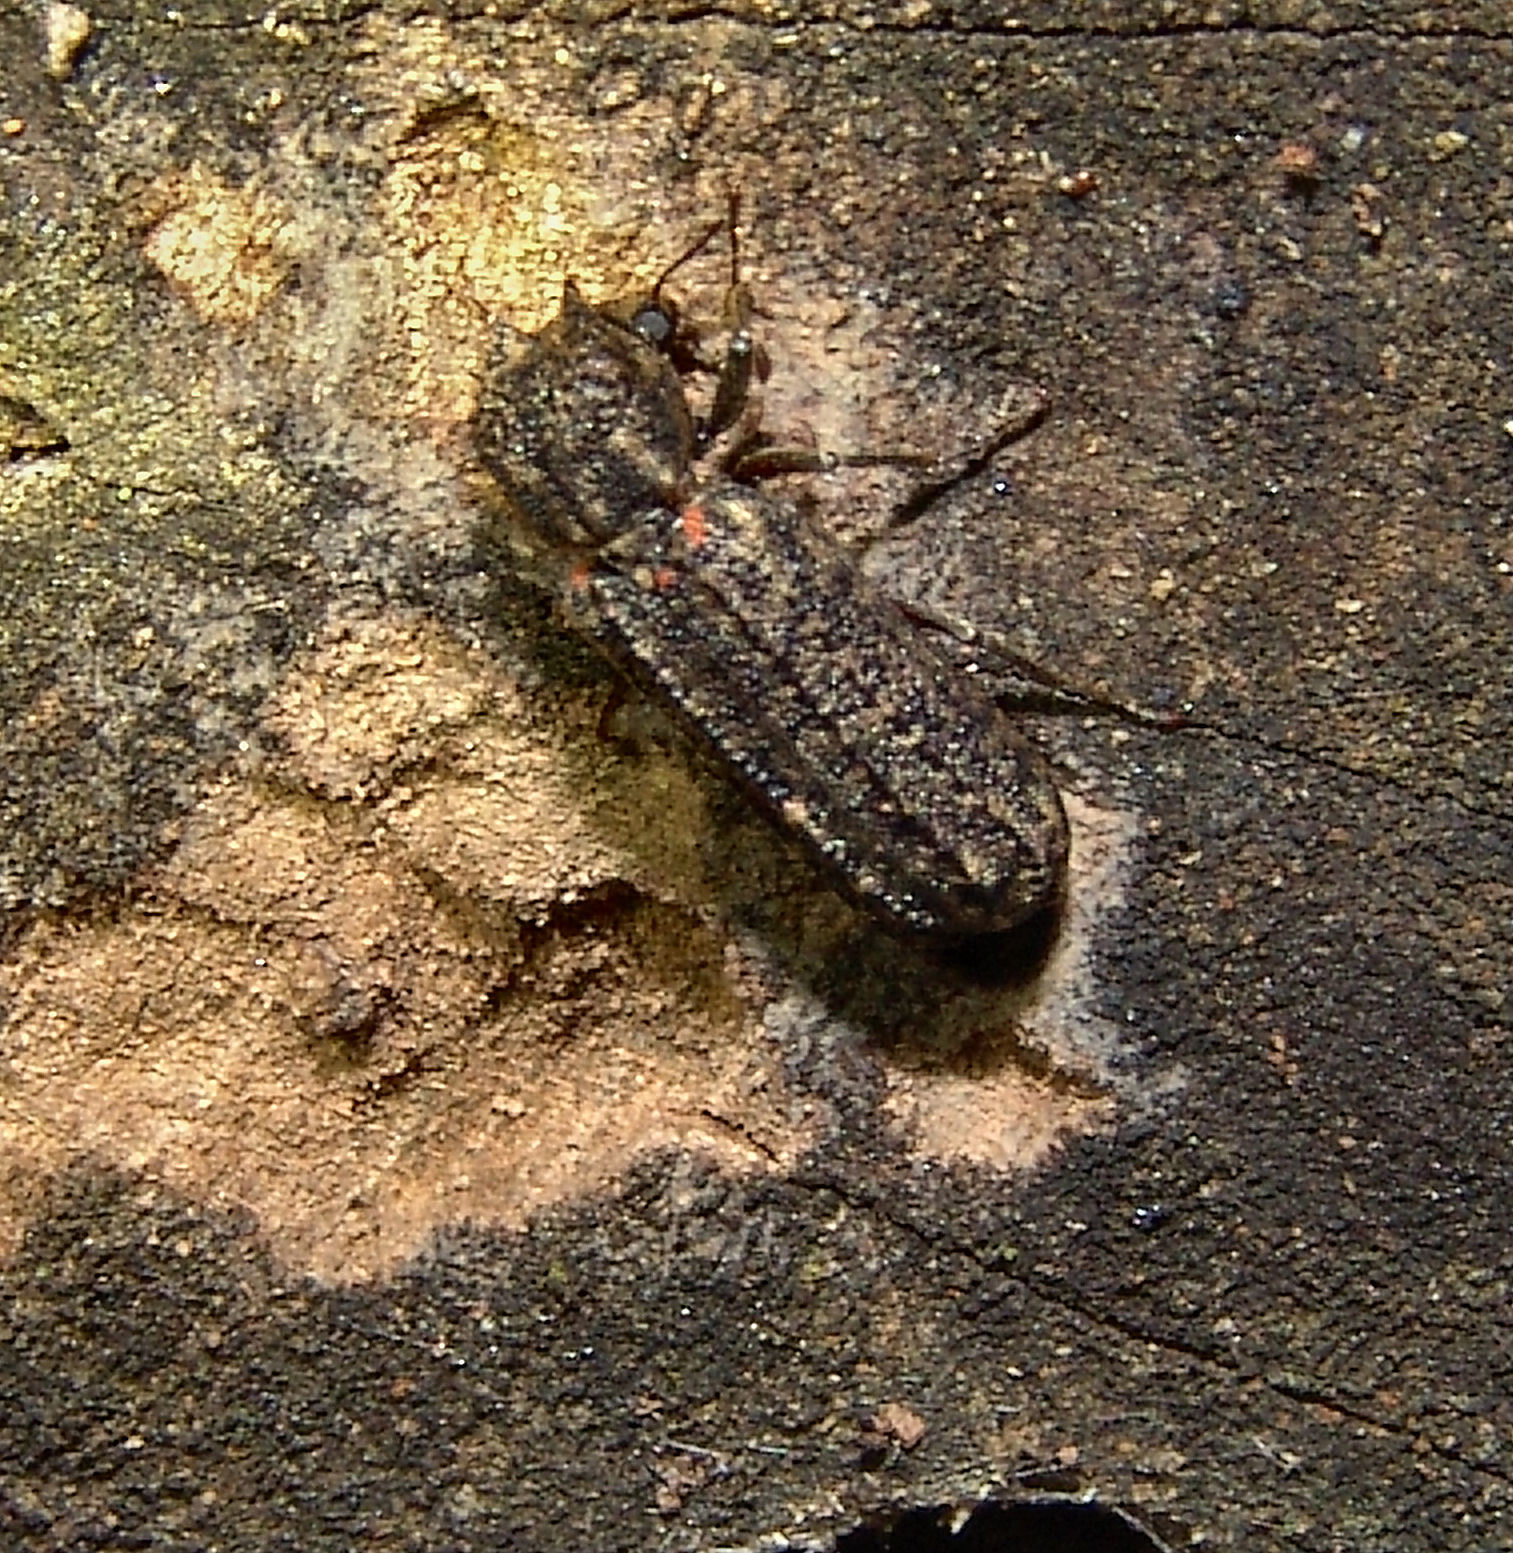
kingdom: Animalia
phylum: Arthropoda
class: Insecta
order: Coleoptera
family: Bostrichidae
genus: Lichenophanes
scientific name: Lichenophanes bicornis
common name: Two-horned powder-post beetle
